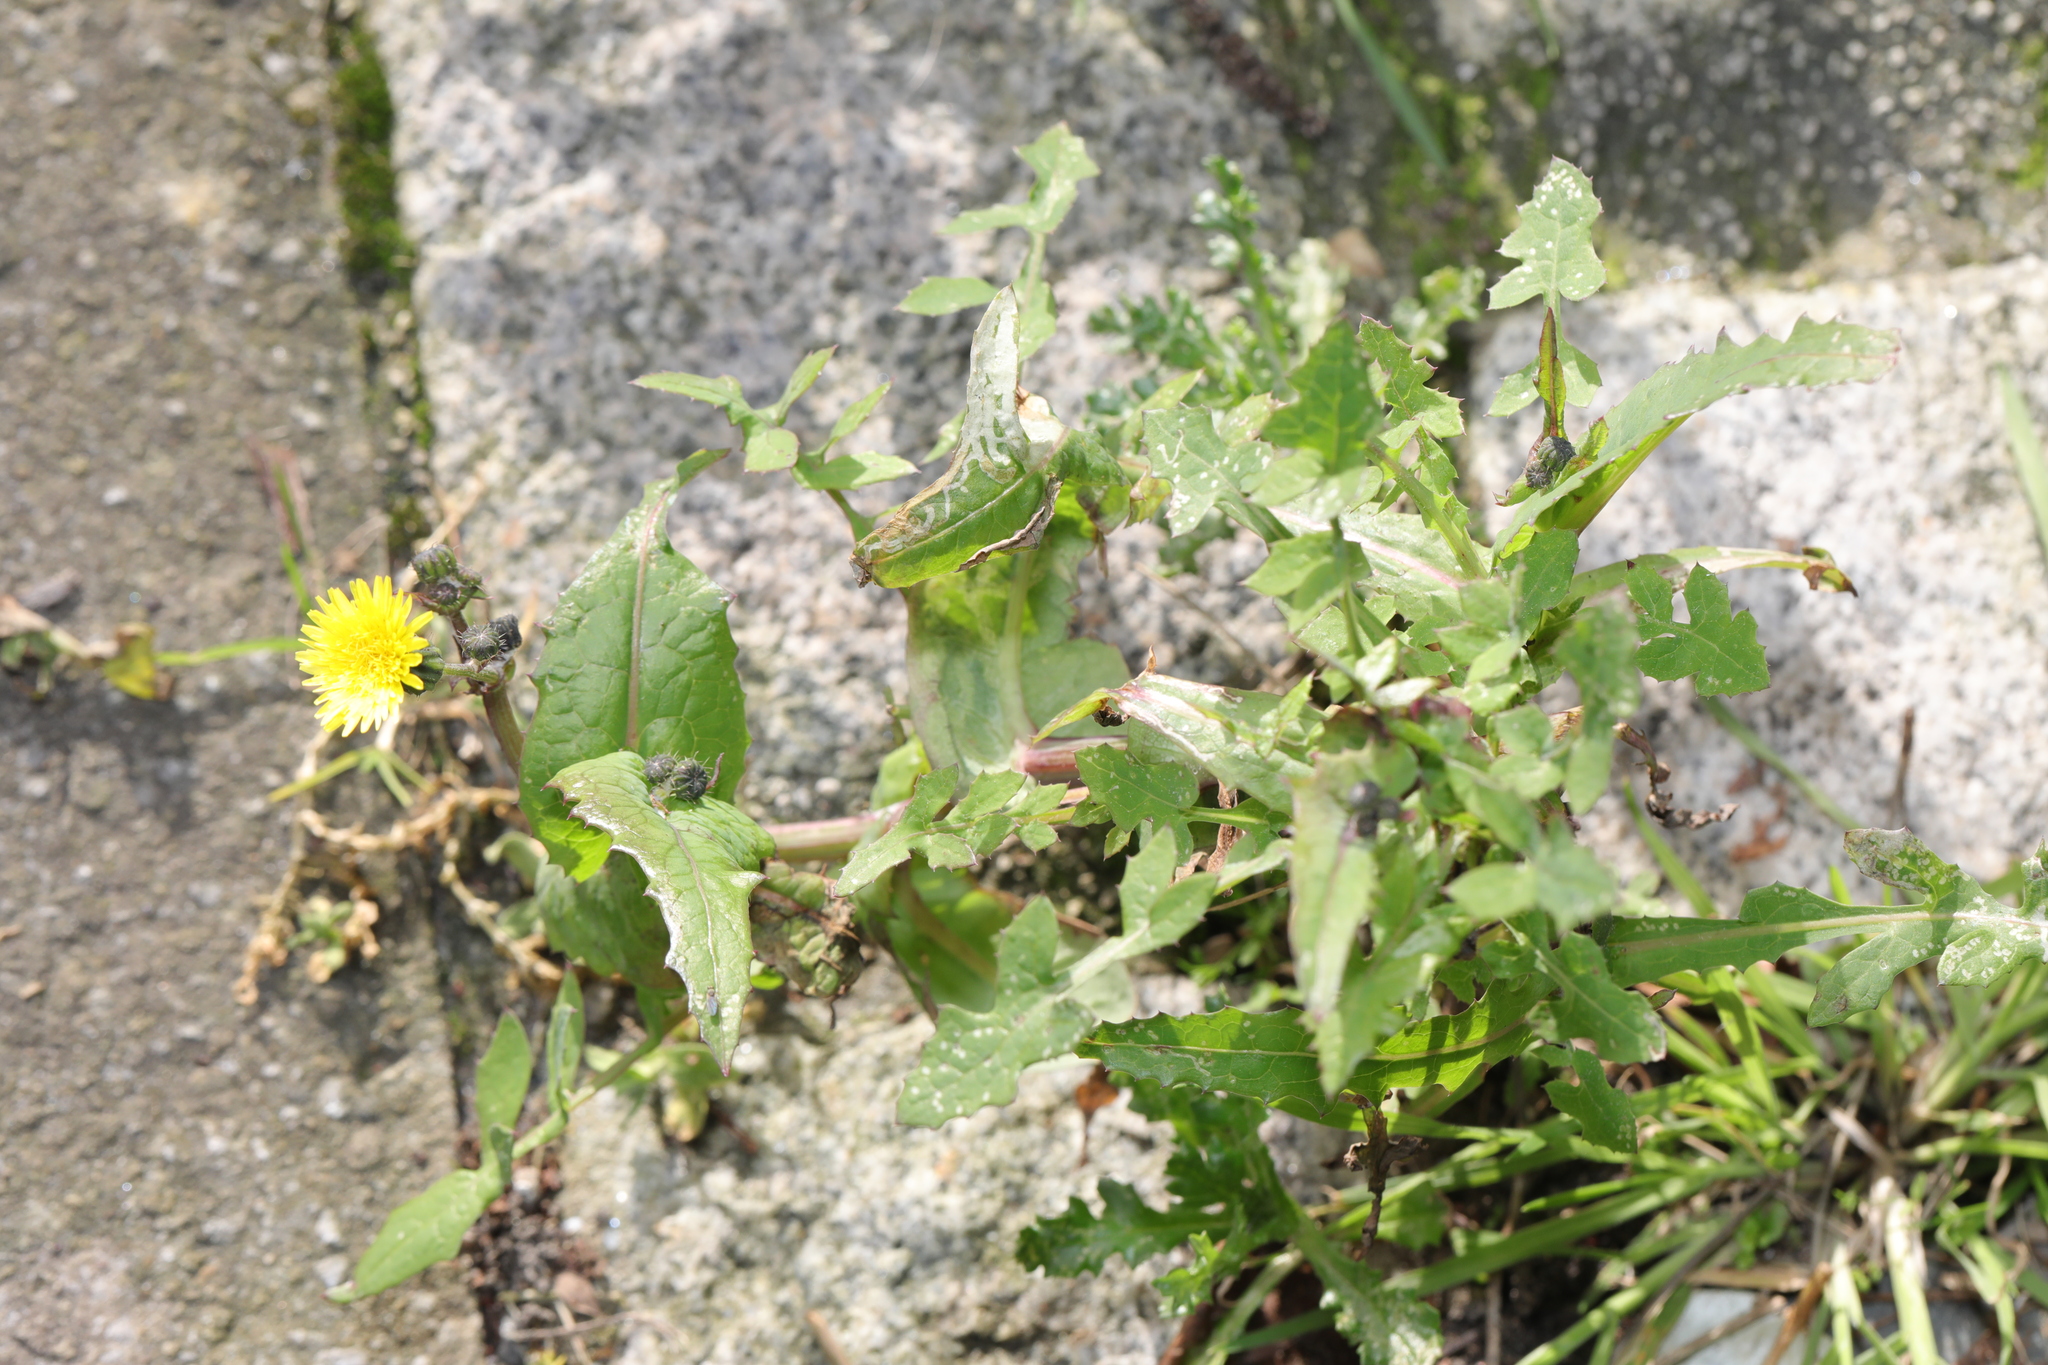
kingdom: Plantae
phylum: Tracheophyta
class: Magnoliopsida
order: Asterales
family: Asteraceae
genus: Sonchus
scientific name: Sonchus oleraceus
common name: Common sowthistle
